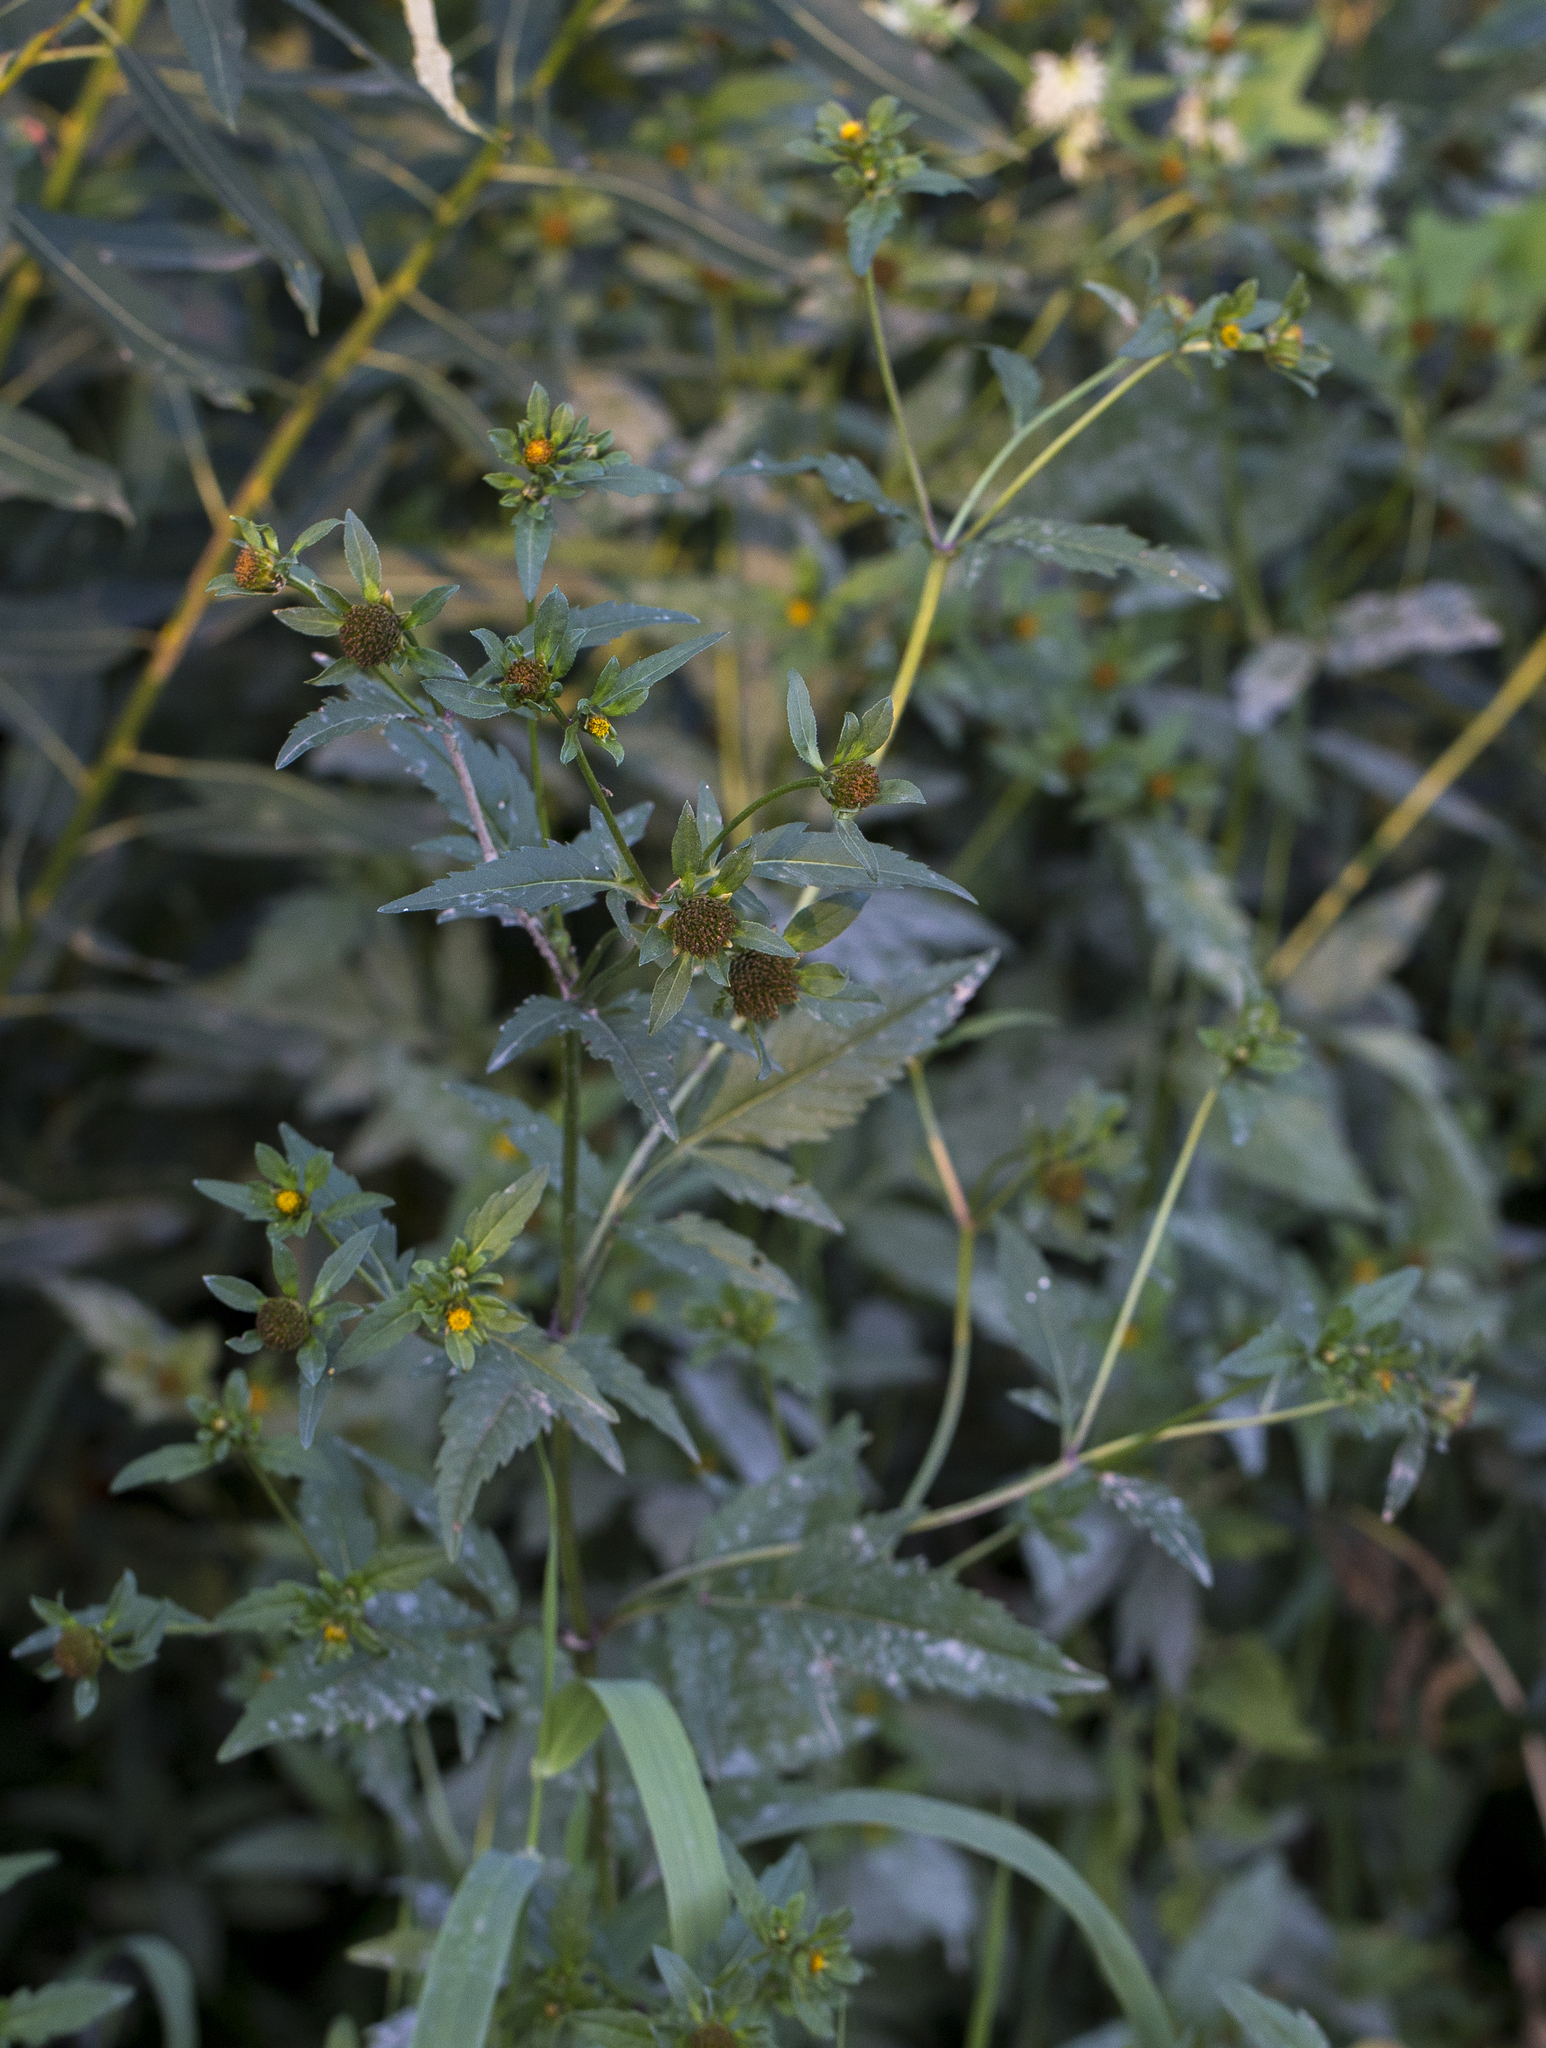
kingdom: Plantae
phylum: Tracheophyta
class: Magnoliopsida
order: Asterales
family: Asteraceae
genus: Bidens
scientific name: Bidens tripartita
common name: Trifid bur-marigold
